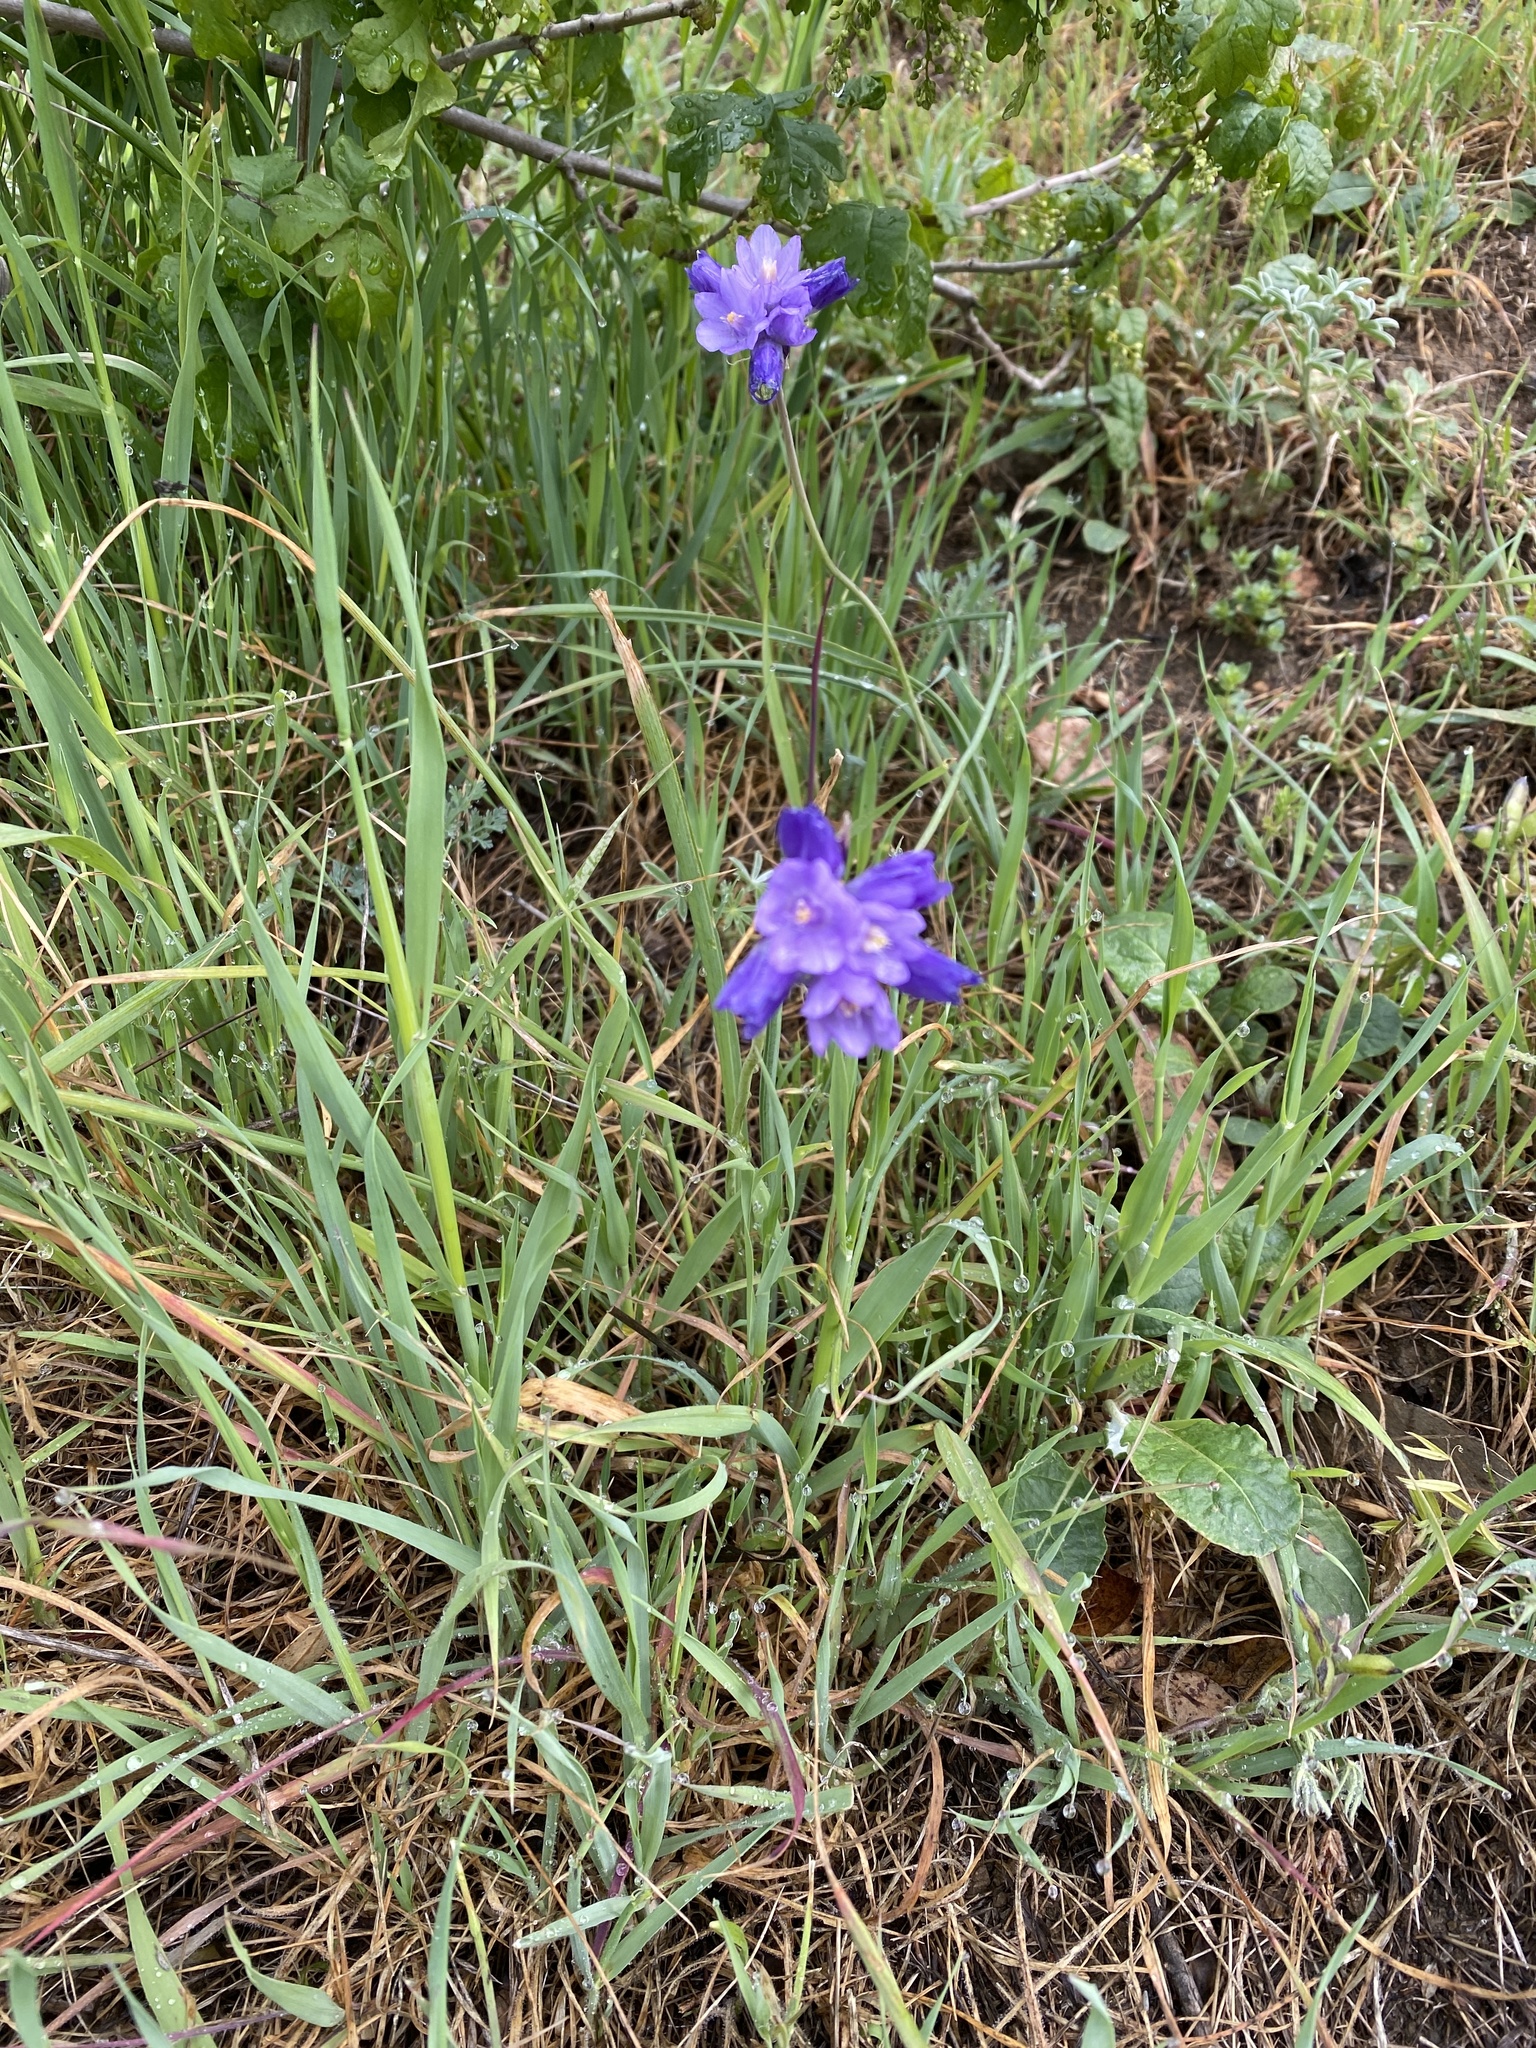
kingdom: Plantae
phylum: Tracheophyta
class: Liliopsida
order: Asparagales
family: Asparagaceae
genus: Dipterostemon
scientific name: Dipterostemon capitatus
